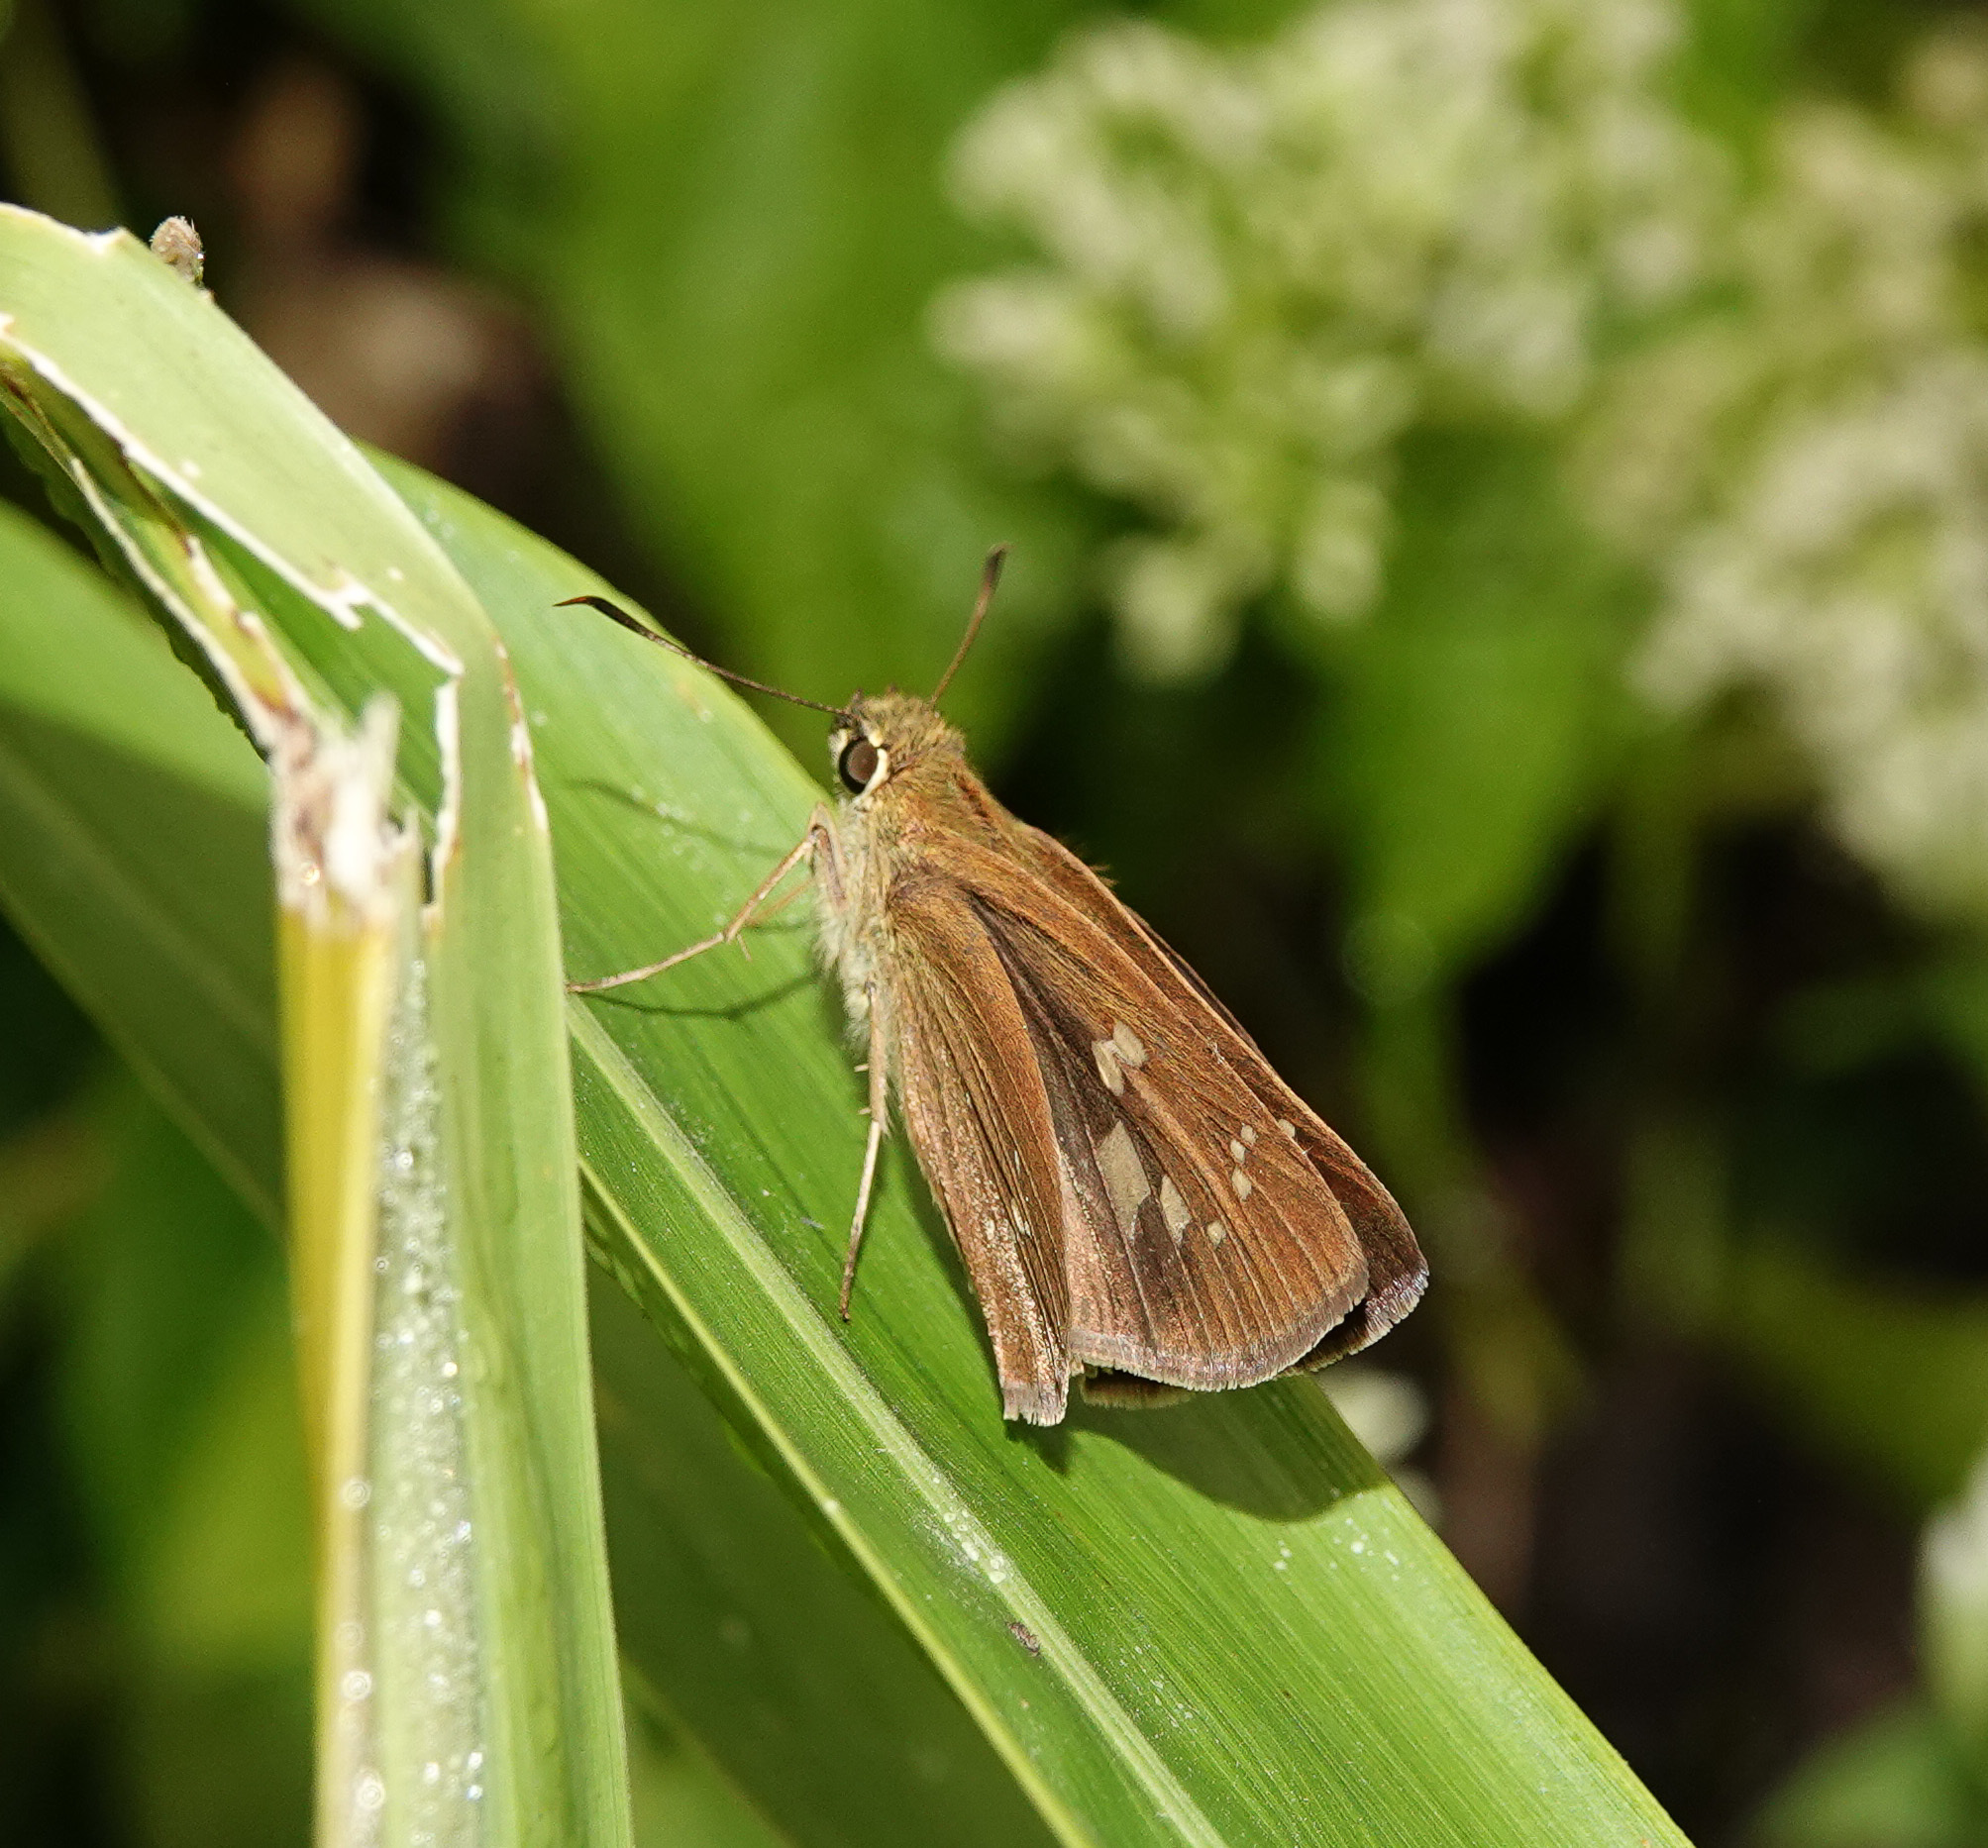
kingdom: Animalia
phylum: Arthropoda
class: Insecta
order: Lepidoptera
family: Hesperiidae
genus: Polytremis
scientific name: Polytremis lubricans
